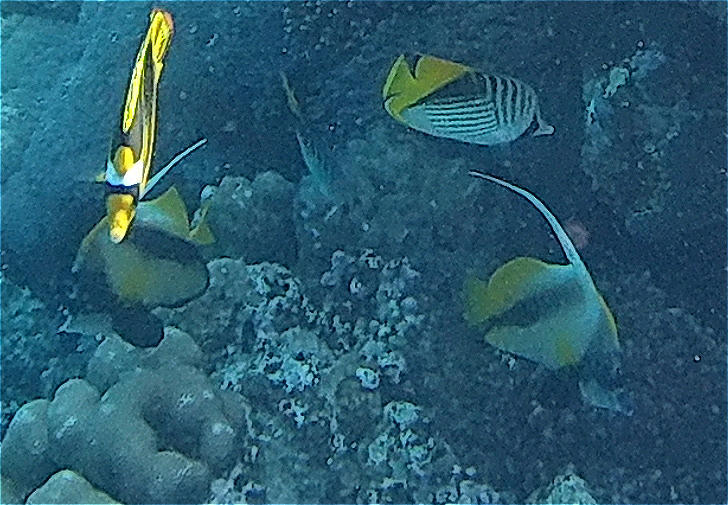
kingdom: Animalia
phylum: Chordata
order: Perciformes
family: Chaetodontidae
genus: Heniochus
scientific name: Heniochus intermedius
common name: Red sea bannerfish
